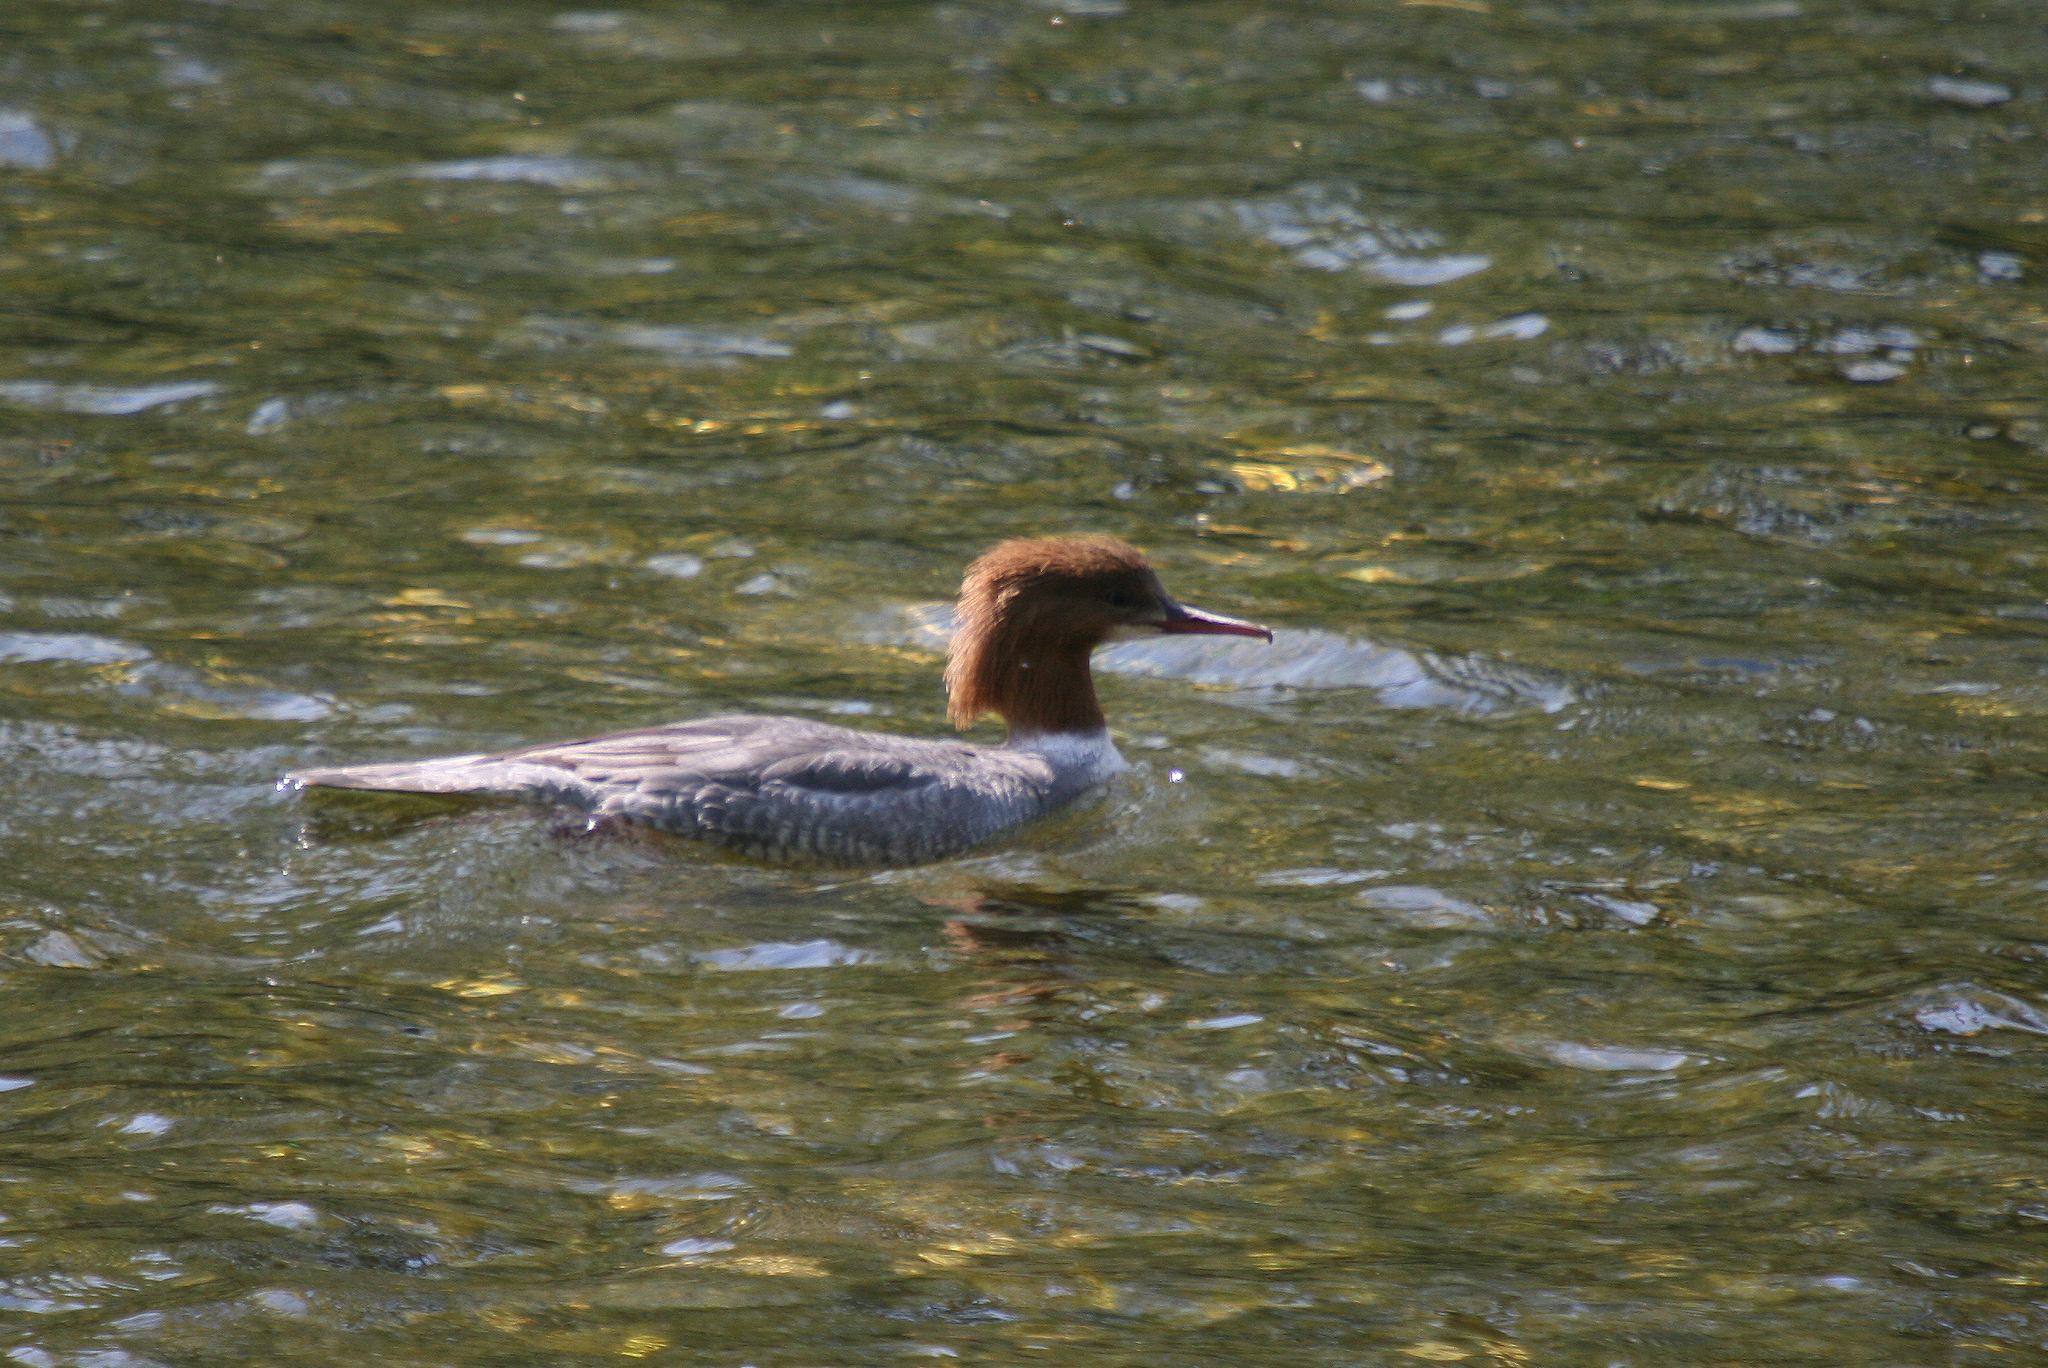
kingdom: Animalia
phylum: Chordata
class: Aves
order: Anseriformes
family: Anatidae
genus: Mergus
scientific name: Mergus merganser
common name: Common merganser
